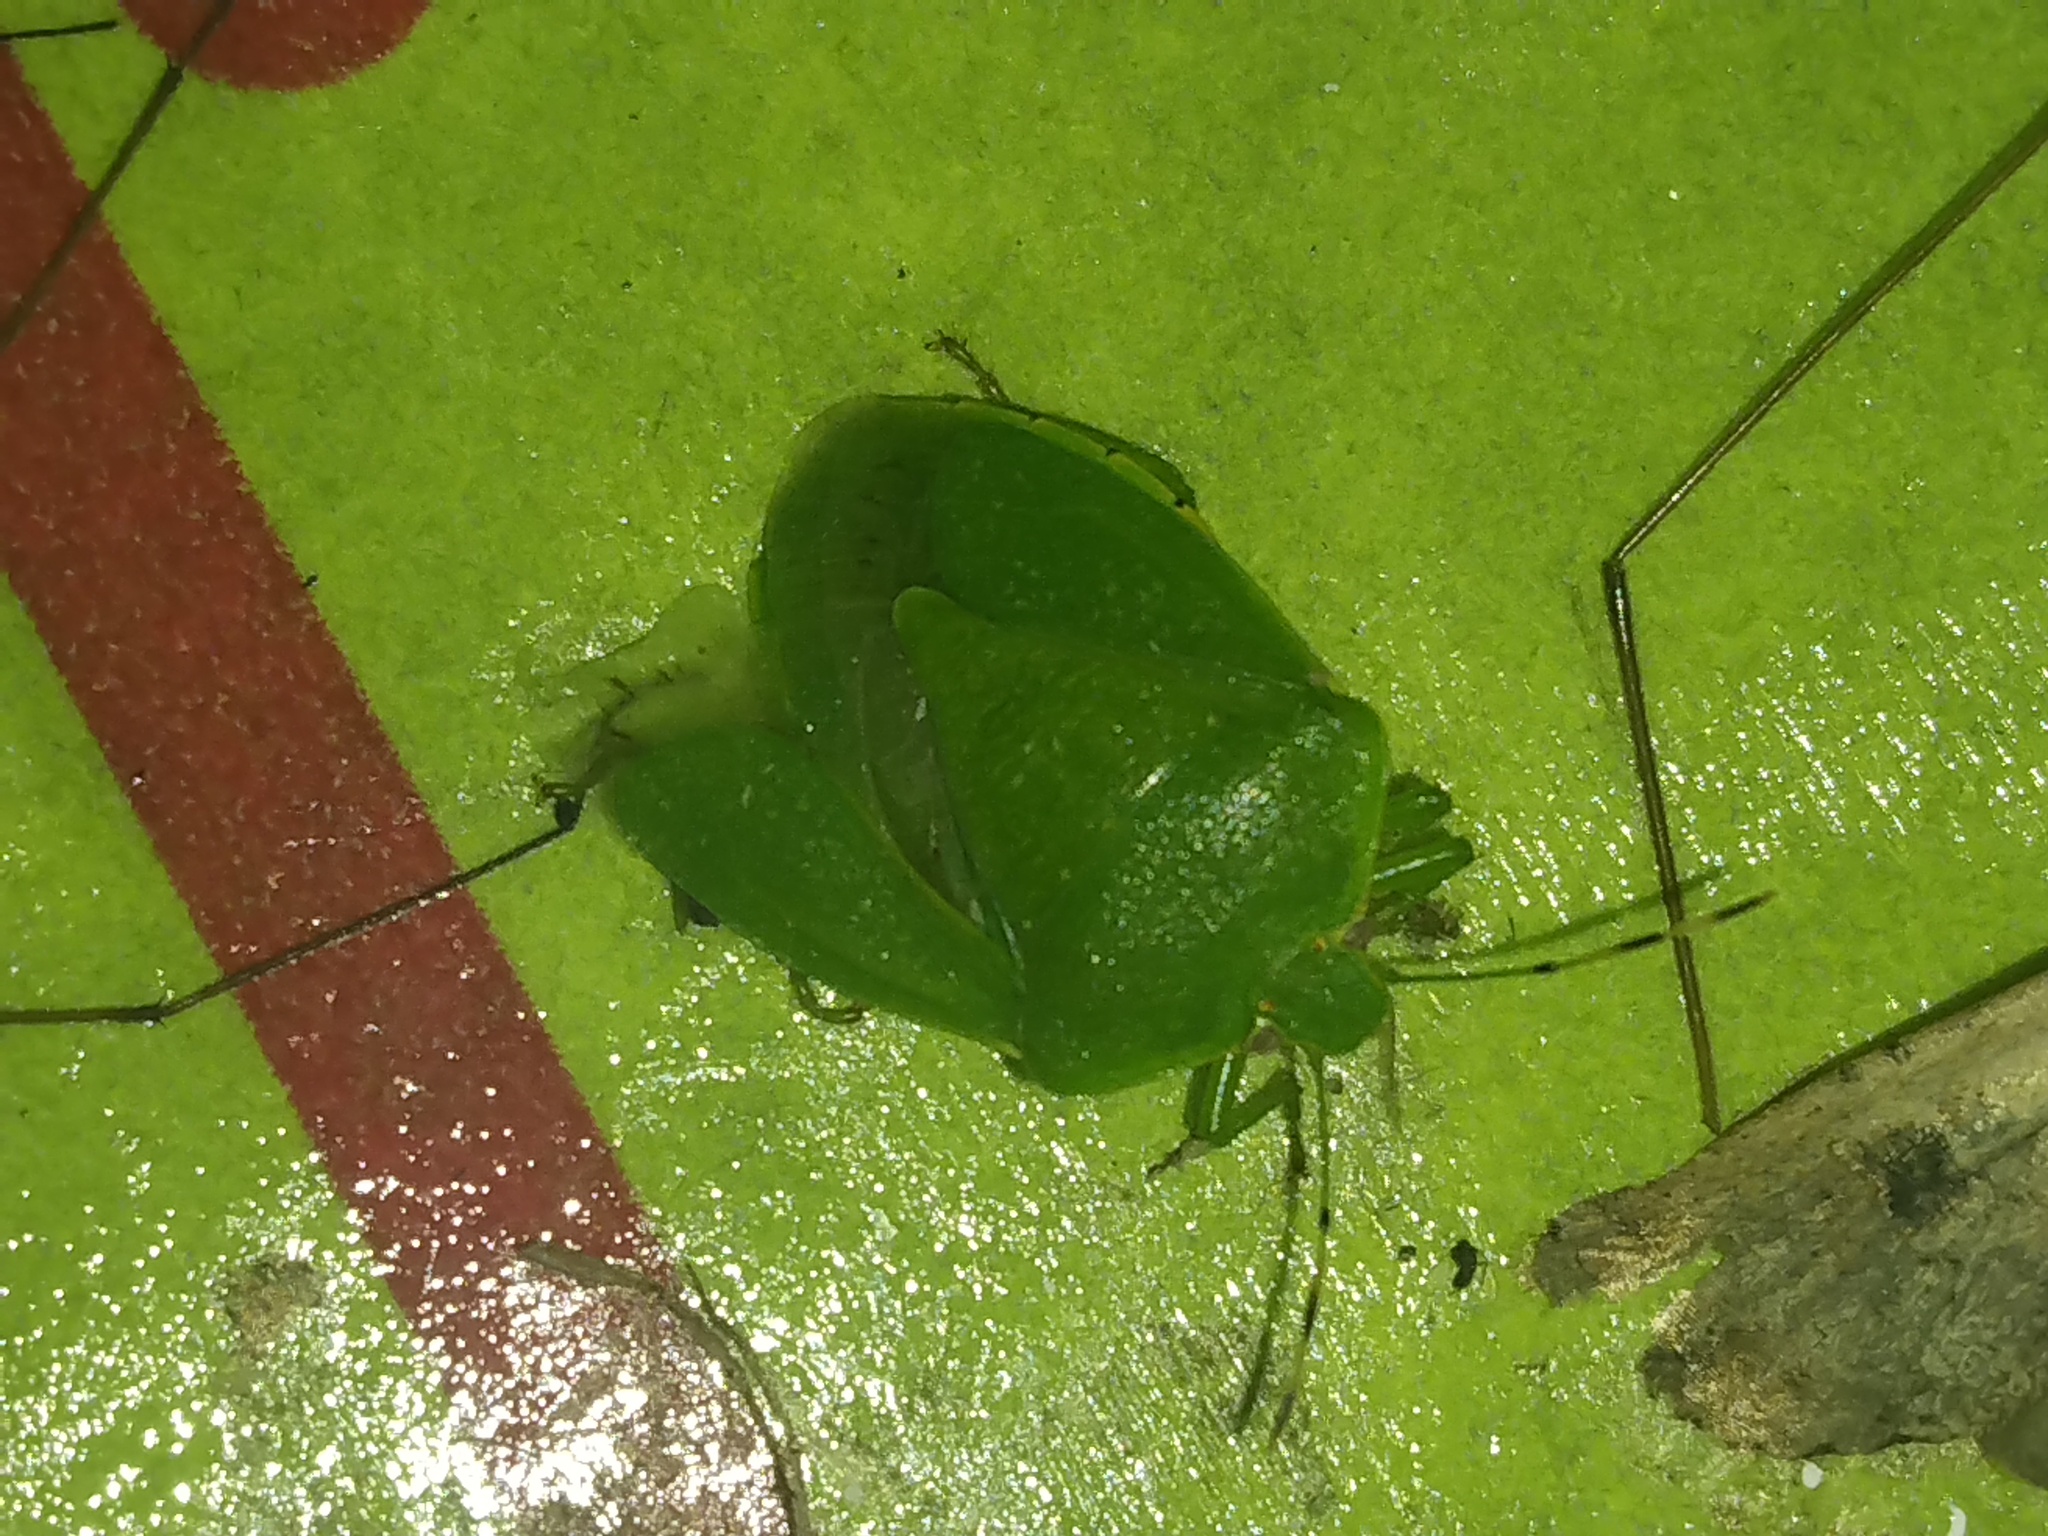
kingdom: Animalia
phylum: Arthropoda
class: Insecta
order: Hemiptera
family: Pentatomidae
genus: Chinavia
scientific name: Chinavia hilaris
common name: Green stink bug
